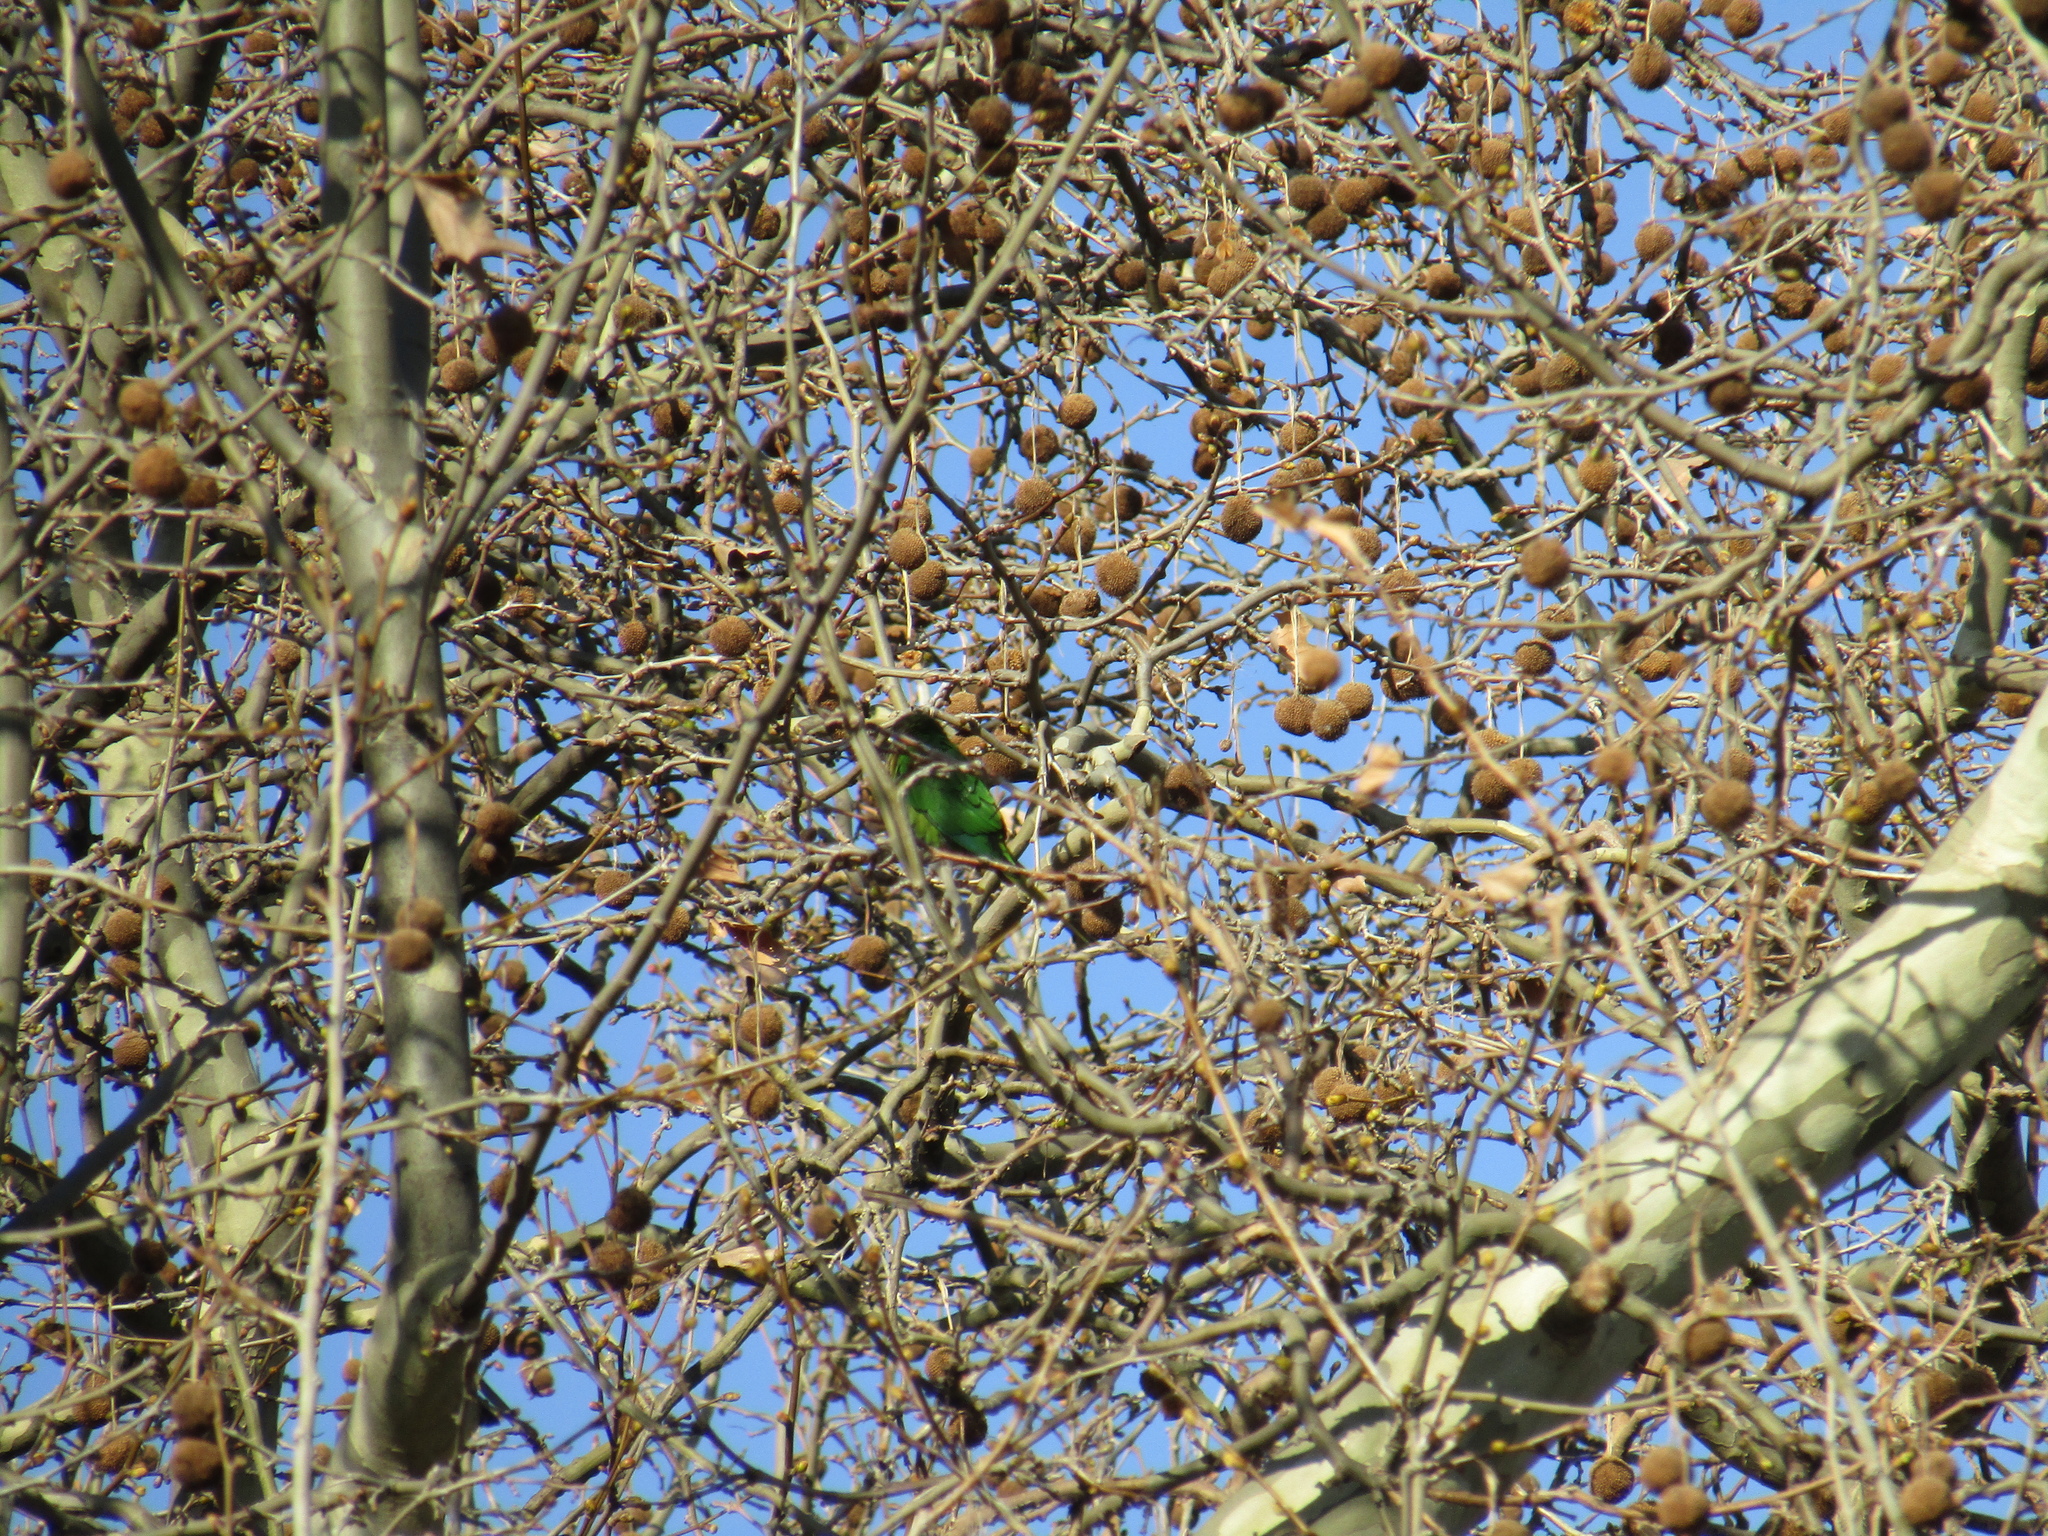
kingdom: Animalia
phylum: Chordata
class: Aves
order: Psittaciformes
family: Psittacidae
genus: Pyrrhura
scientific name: Pyrrhura frontalis
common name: Maroon-bellied parakeet
